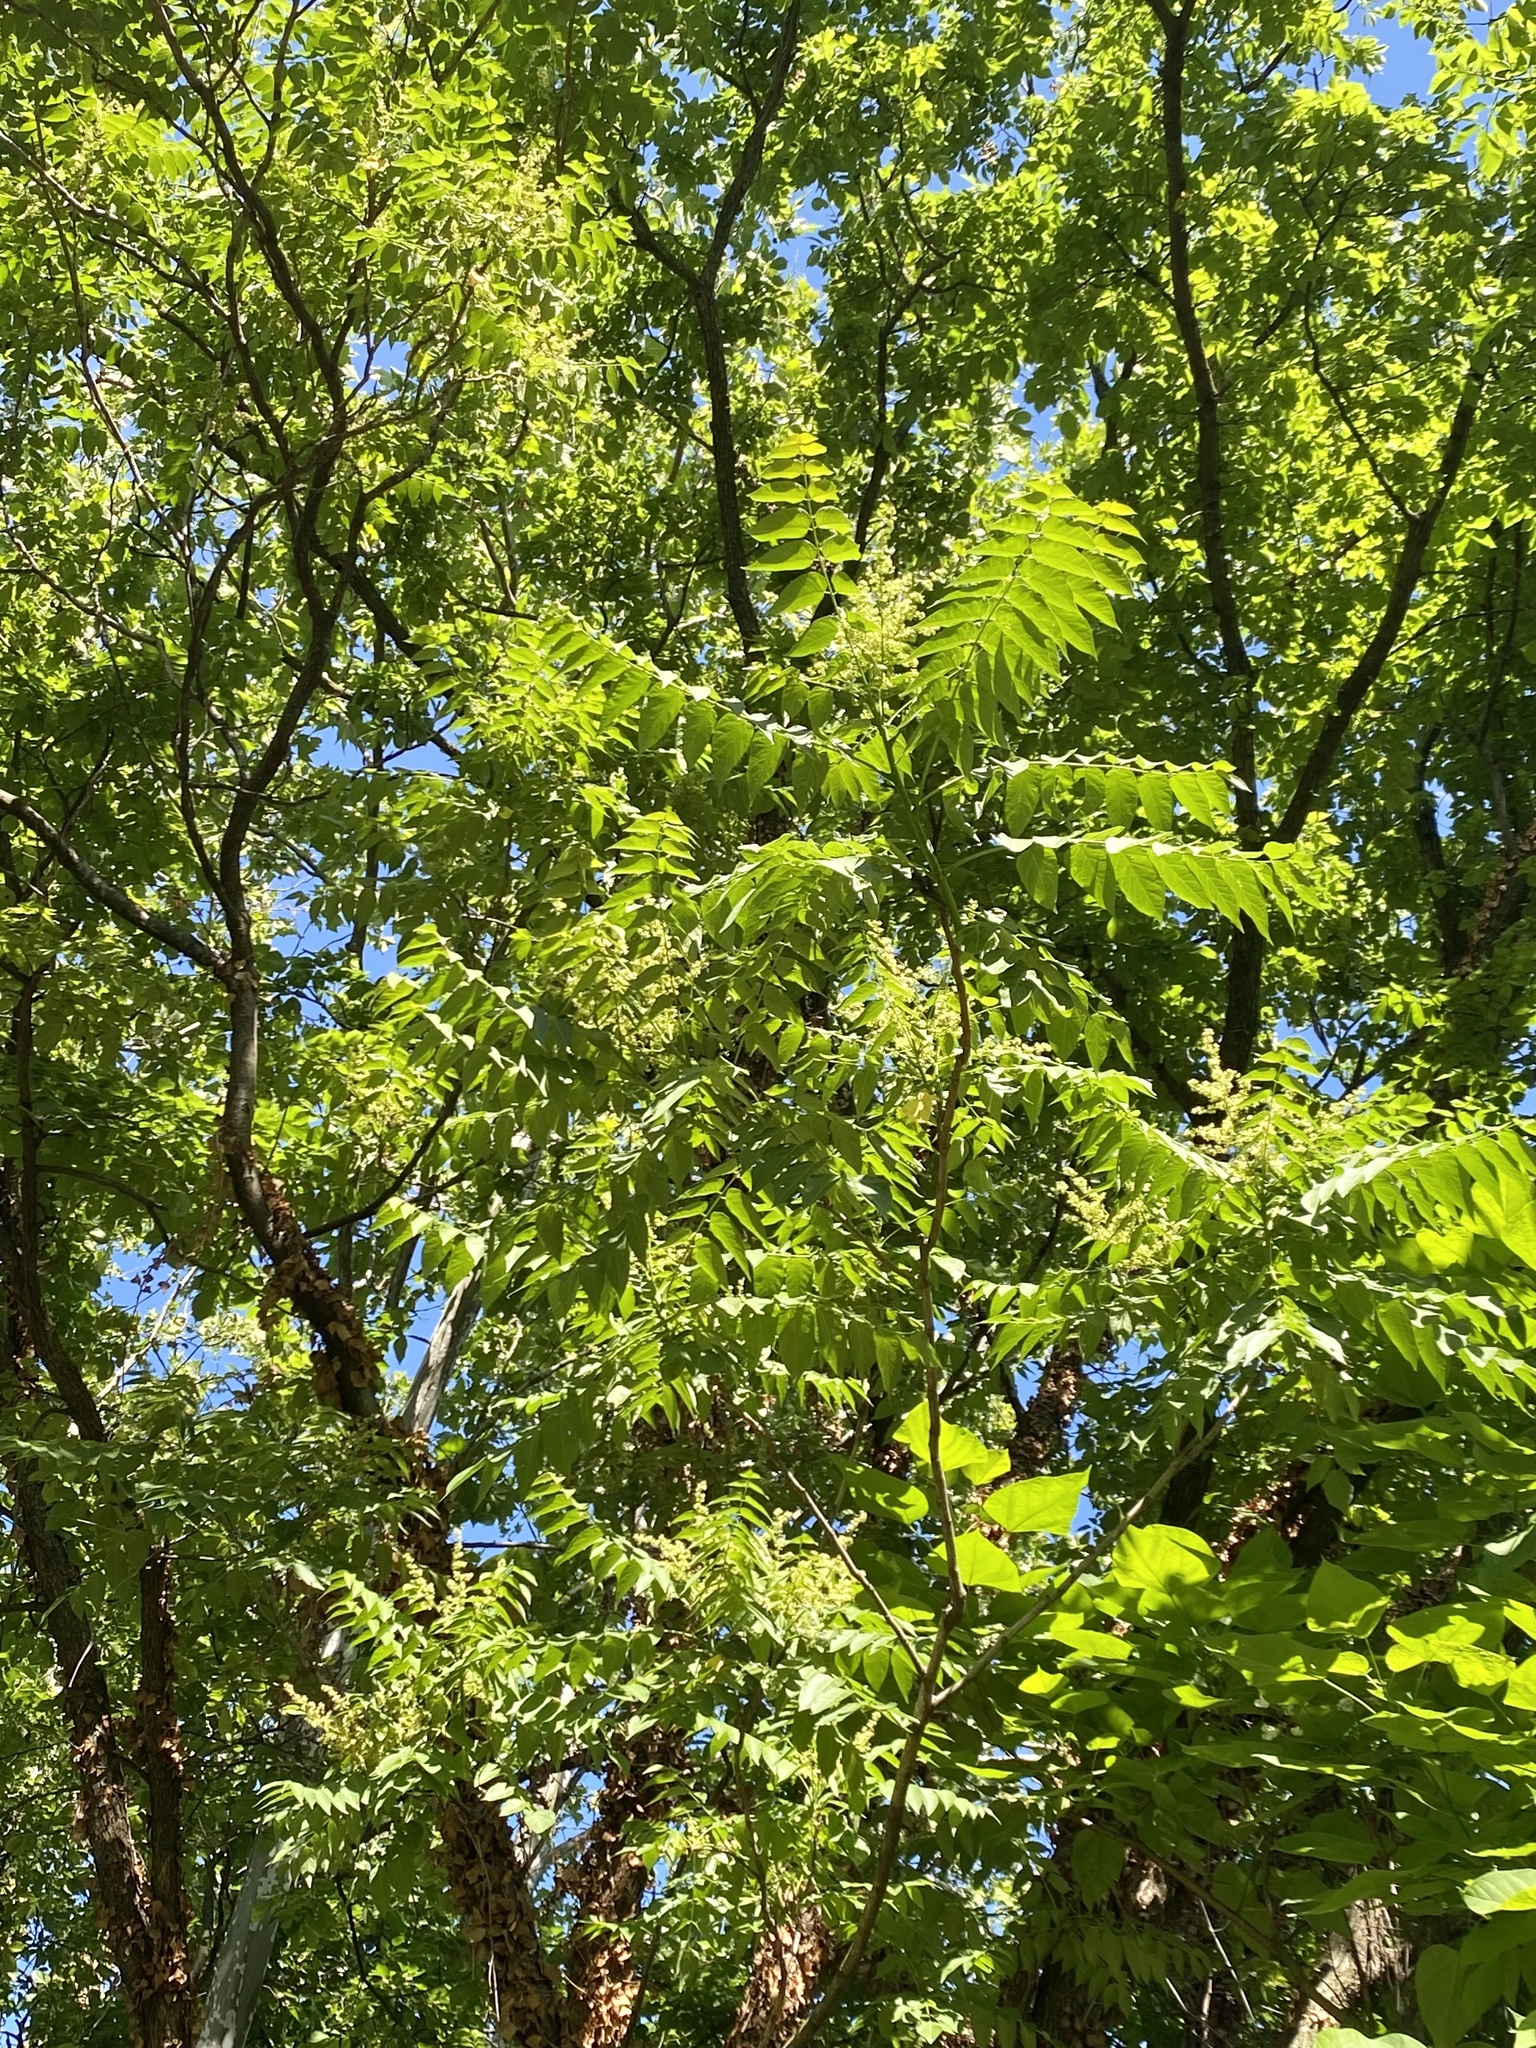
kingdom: Plantae
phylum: Tracheophyta
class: Magnoliopsida
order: Sapindales
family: Simaroubaceae
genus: Ailanthus
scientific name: Ailanthus altissima
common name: Tree-of-heaven
